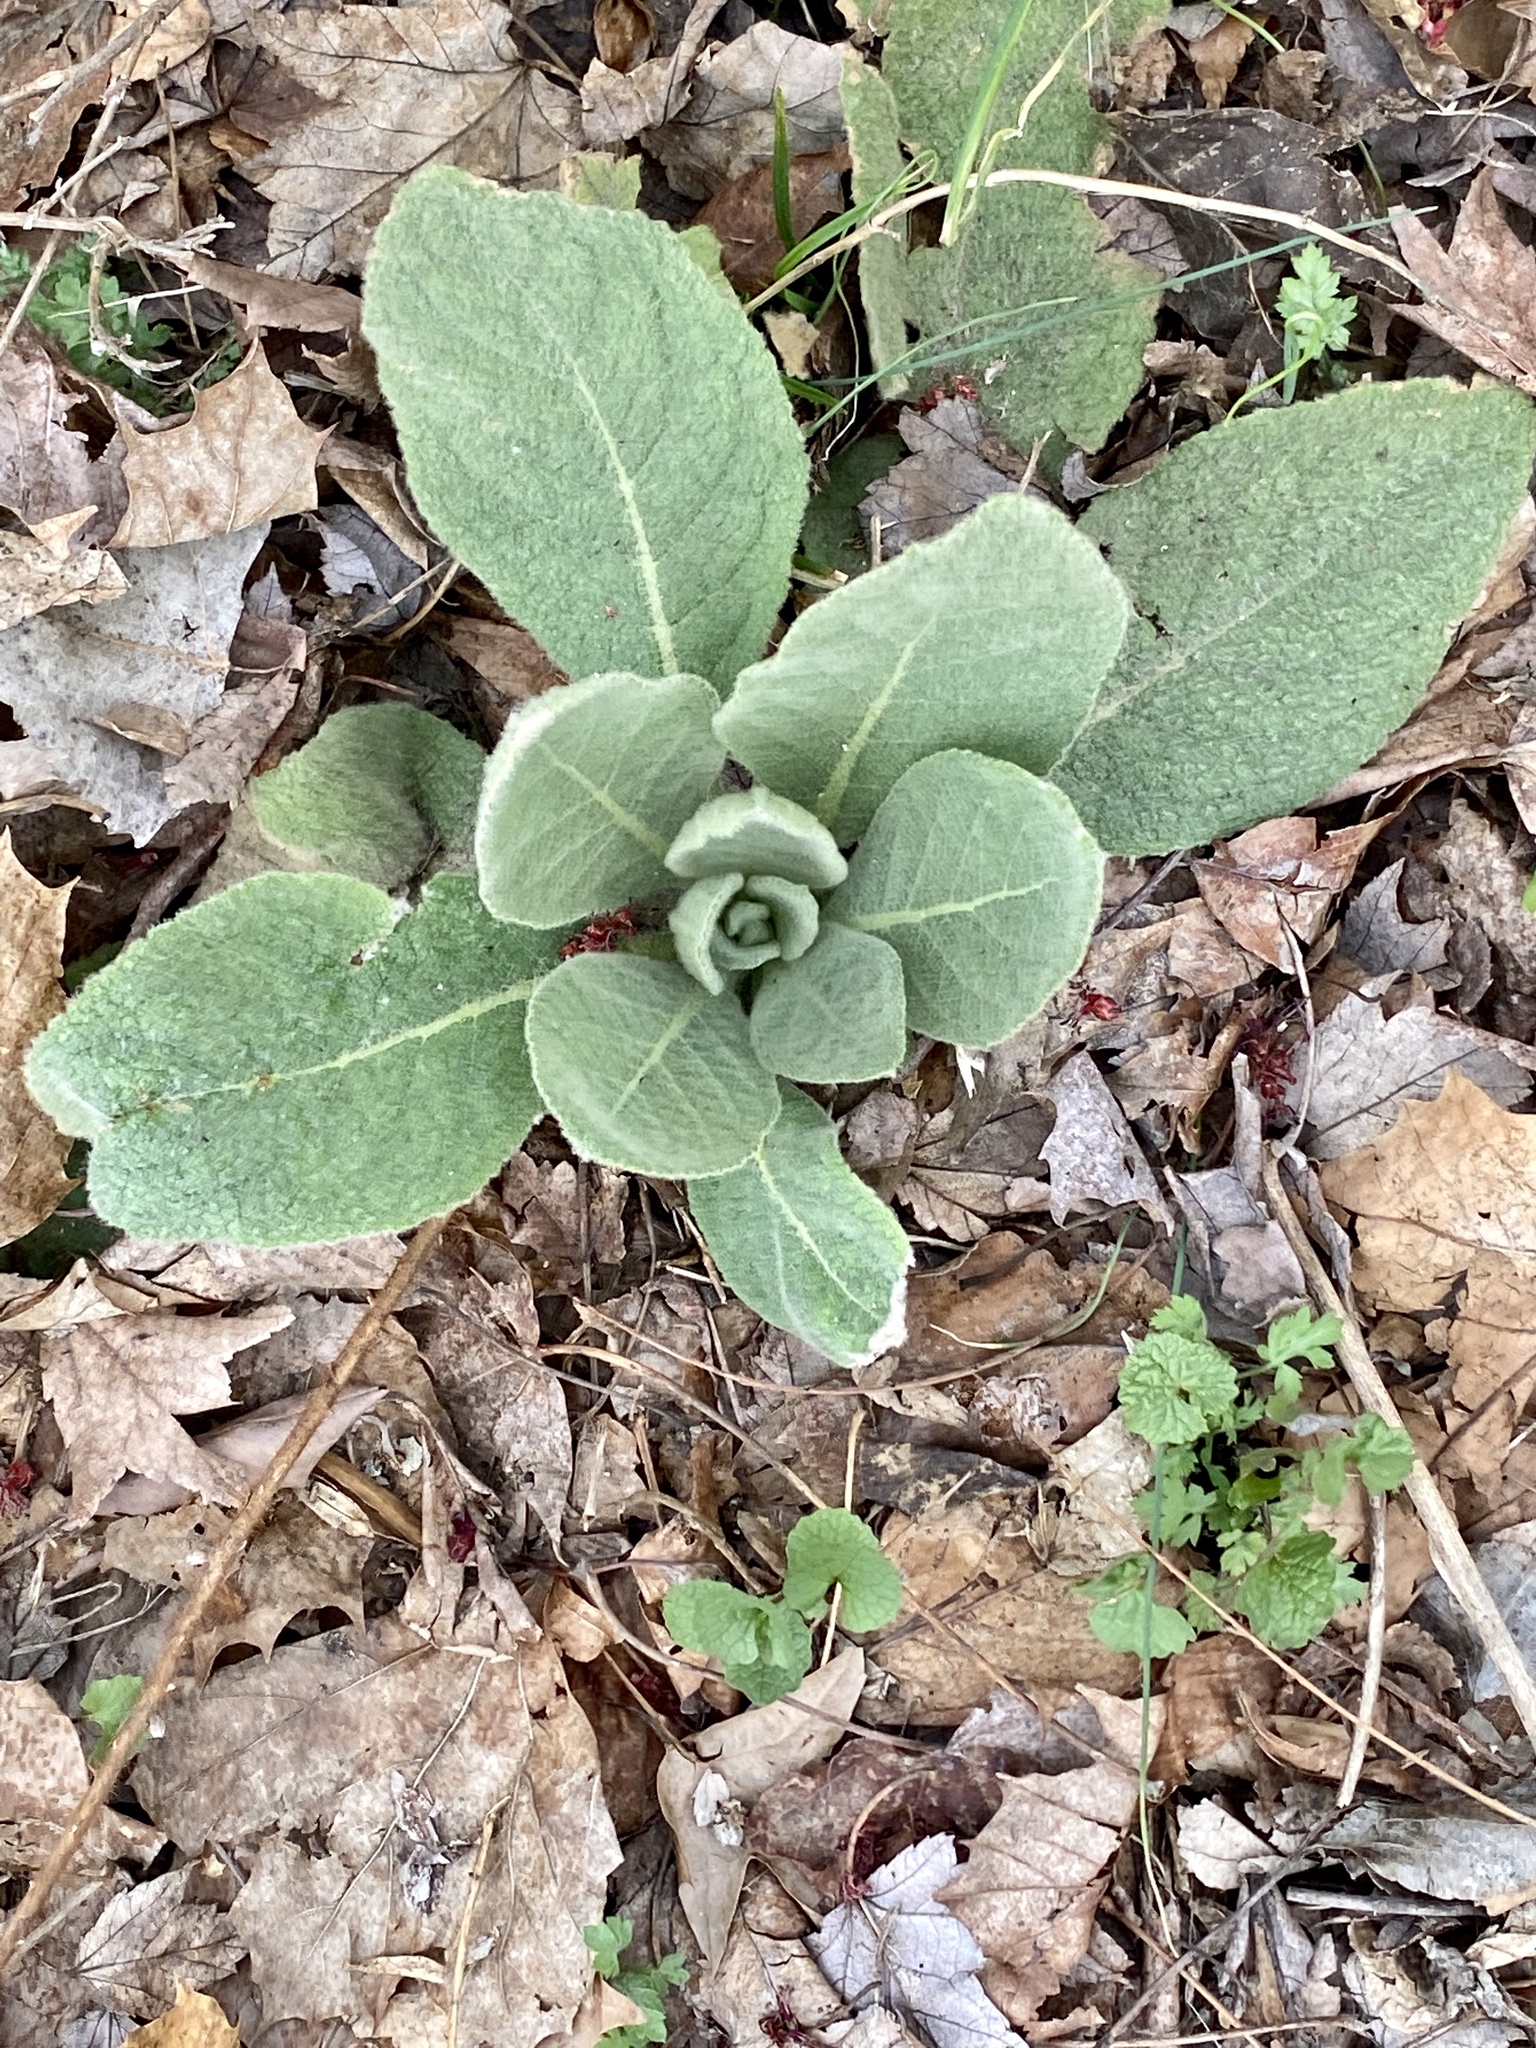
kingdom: Plantae
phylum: Tracheophyta
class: Magnoliopsida
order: Lamiales
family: Scrophulariaceae
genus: Verbascum
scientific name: Verbascum thapsus
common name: Common mullein
